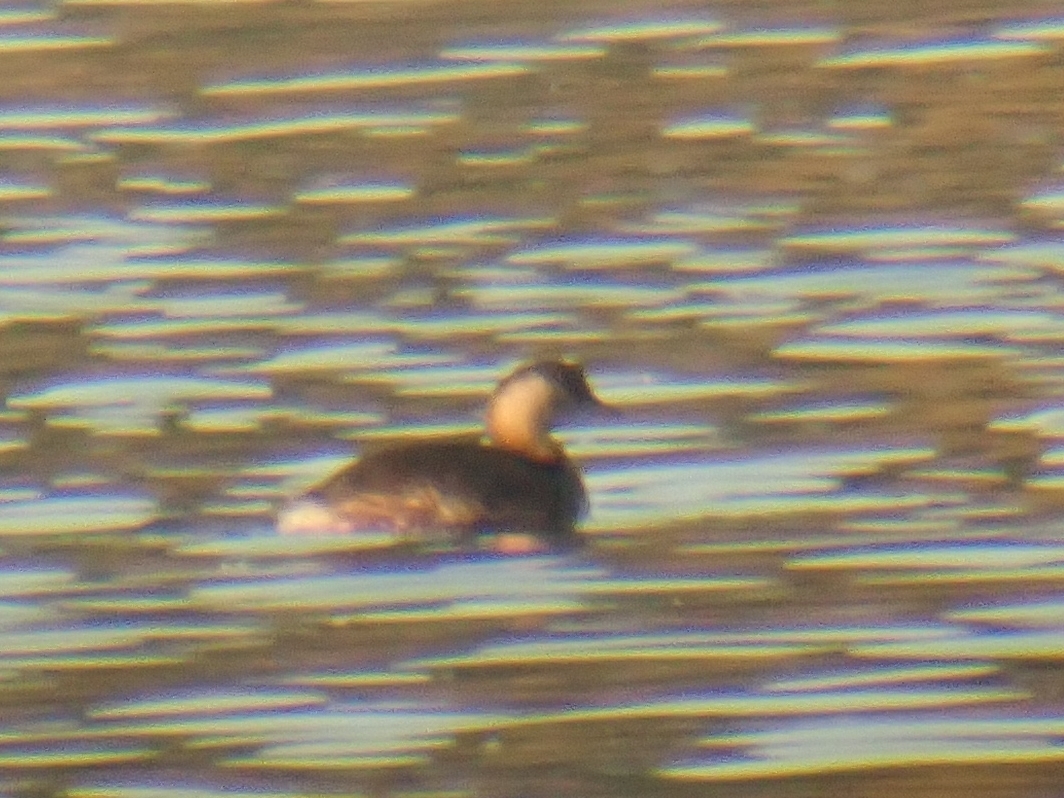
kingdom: Animalia
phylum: Chordata
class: Aves
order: Podicipediformes
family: Podicipedidae
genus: Tachybaptus
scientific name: Tachybaptus ruficollis
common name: Little grebe
